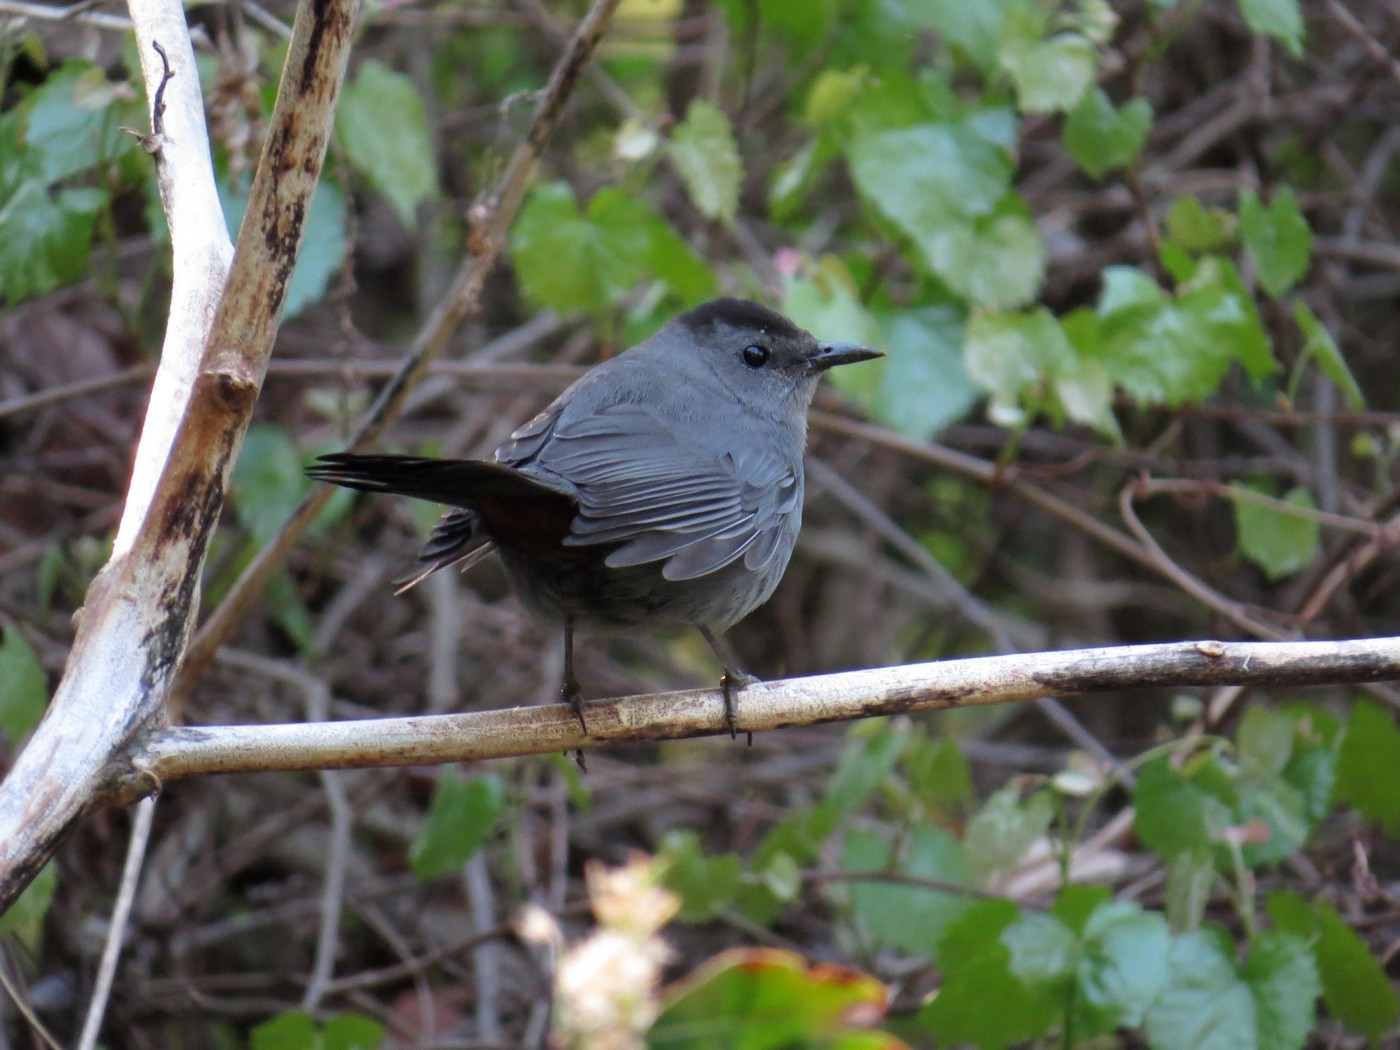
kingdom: Animalia
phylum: Chordata
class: Aves
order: Passeriformes
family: Mimidae
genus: Dumetella
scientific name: Dumetella carolinensis
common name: Gray catbird
